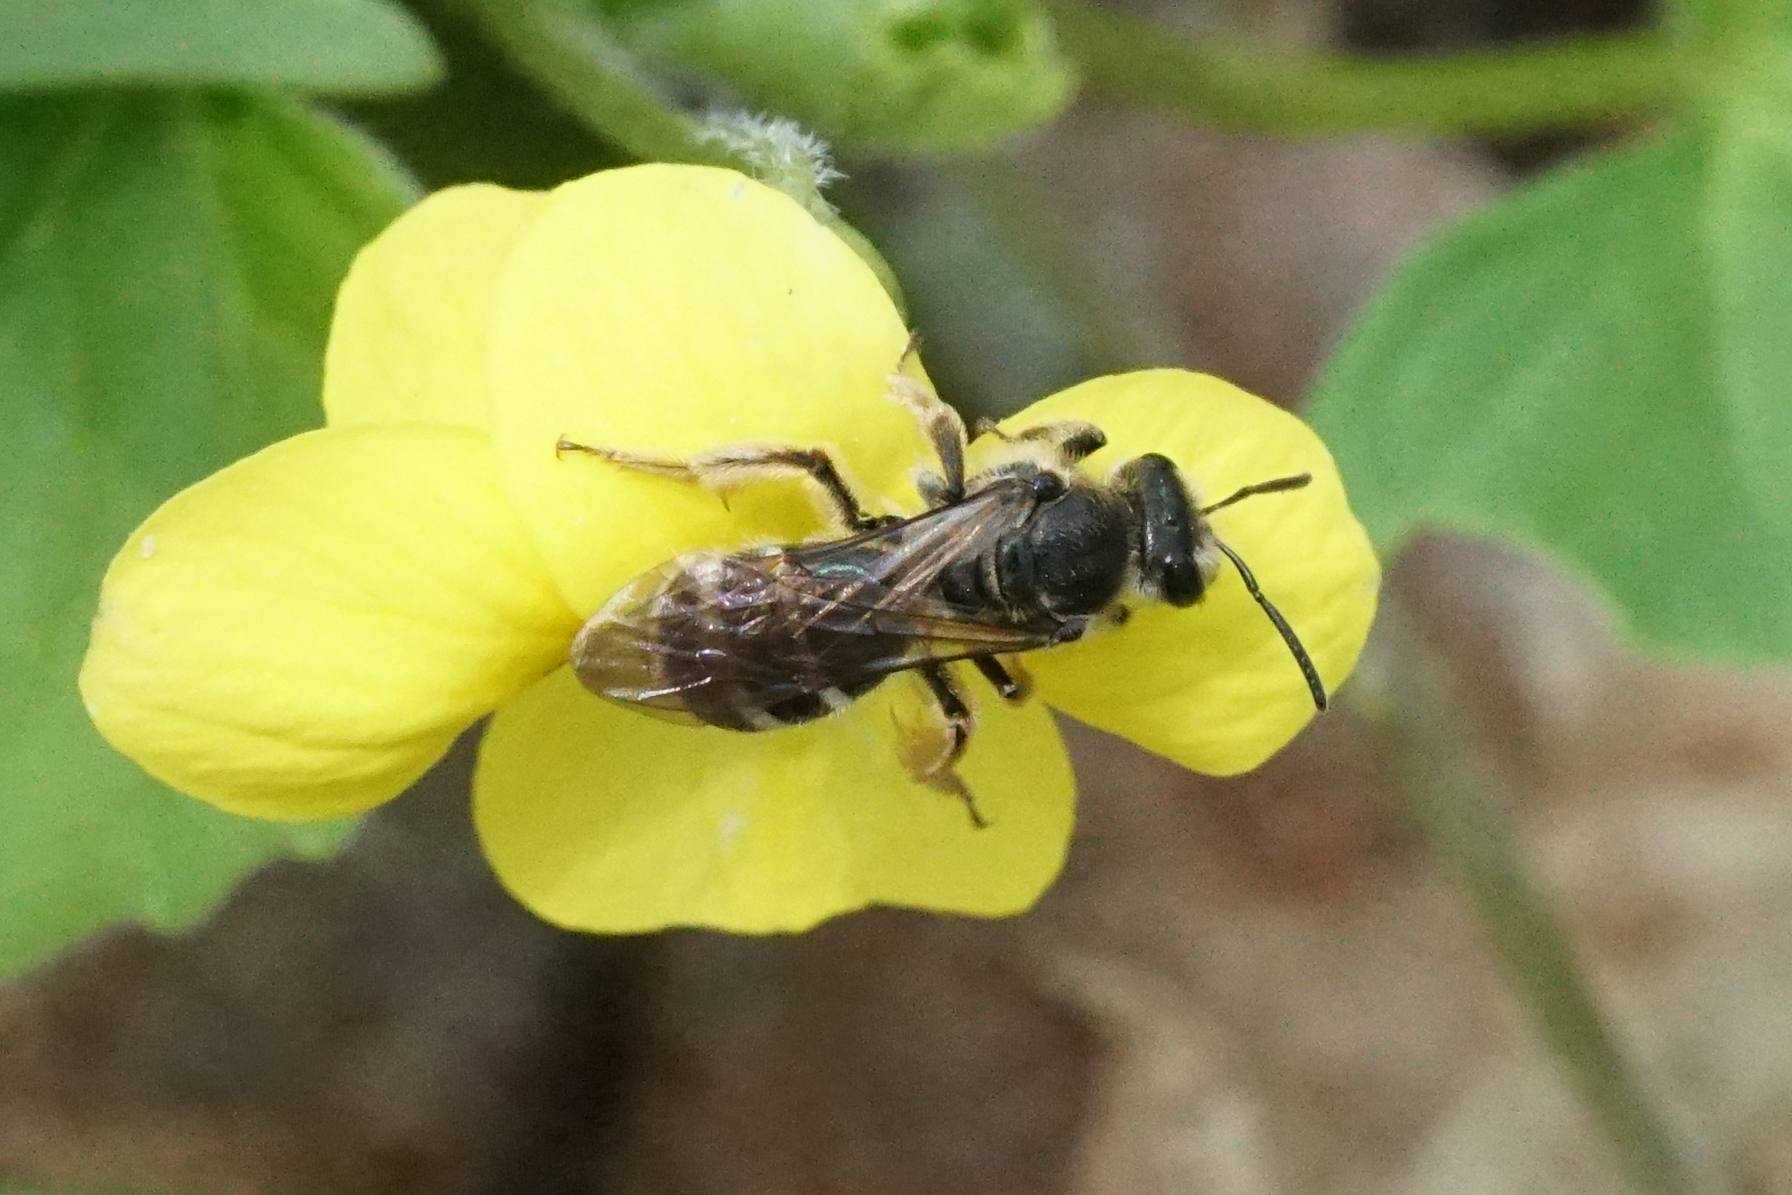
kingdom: Animalia
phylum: Arthropoda
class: Insecta
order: Hymenoptera
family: Halictidae
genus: Lasioglossum
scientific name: Lasioglossum
